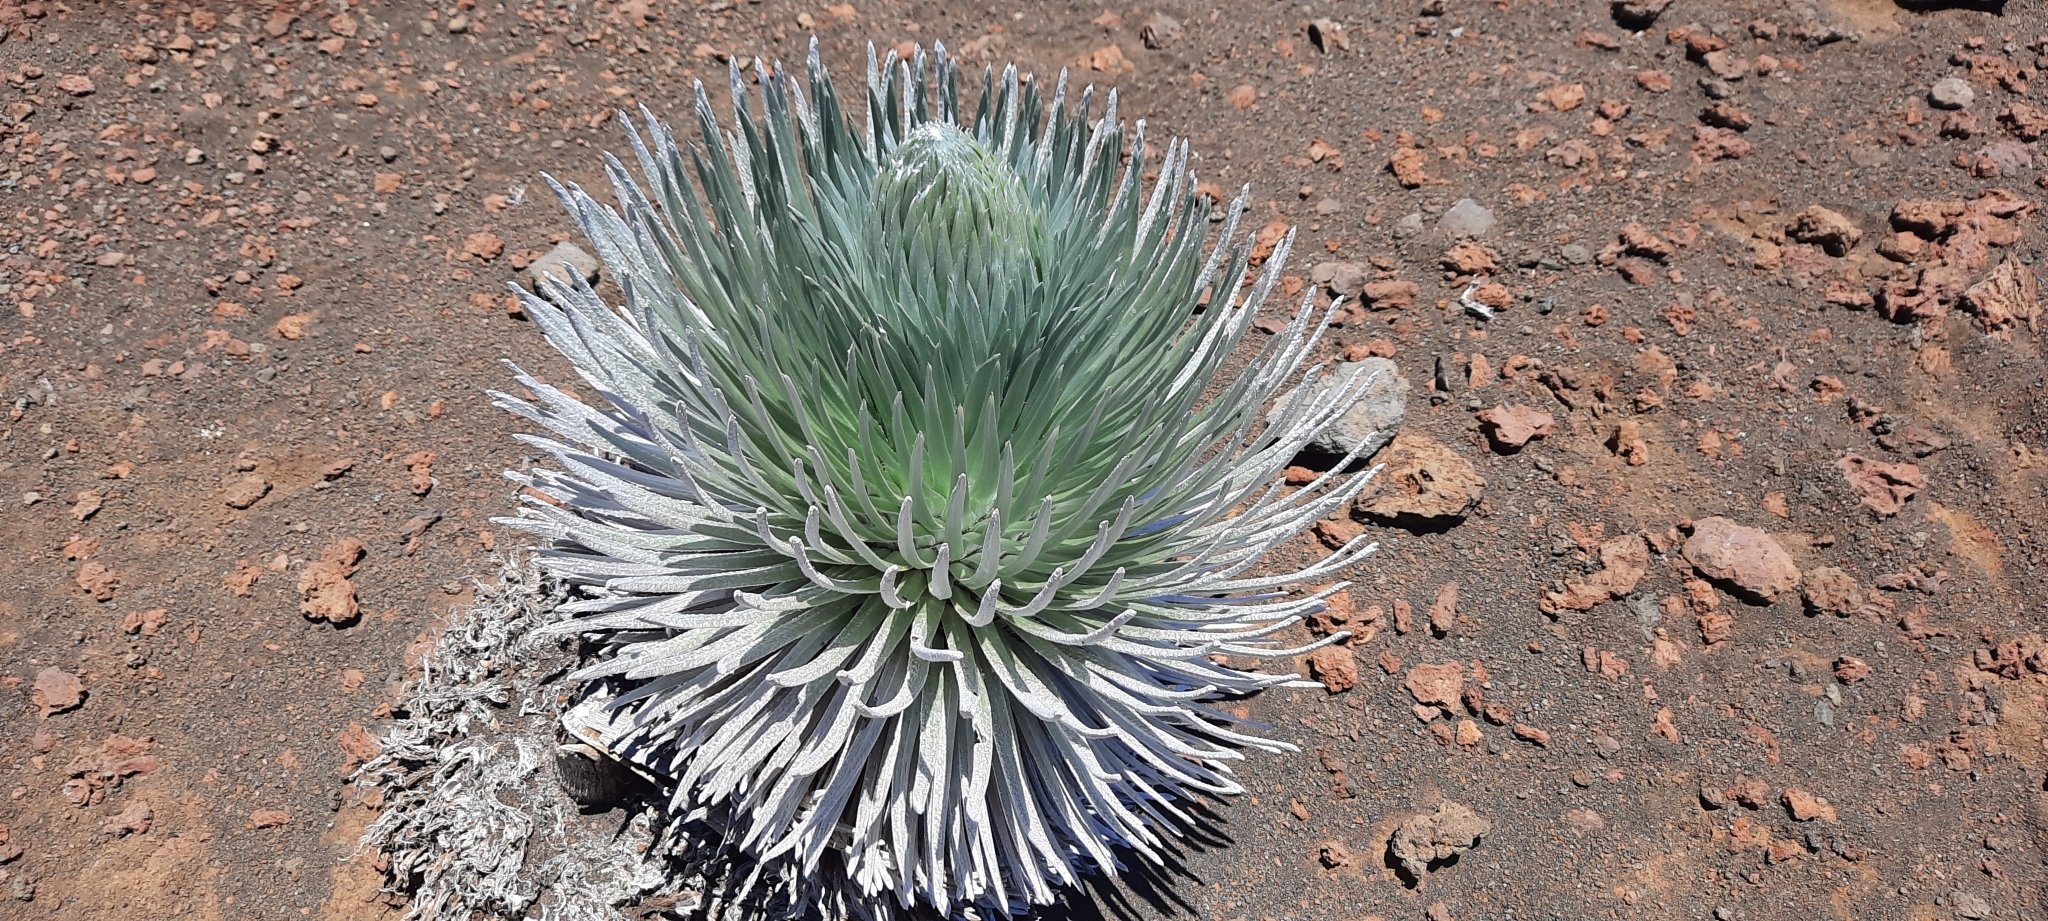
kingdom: Plantae
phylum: Tracheophyta
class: Magnoliopsida
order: Asterales
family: Asteraceae
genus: Argyroxiphium
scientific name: Argyroxiphium sandwicense
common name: Silversword
